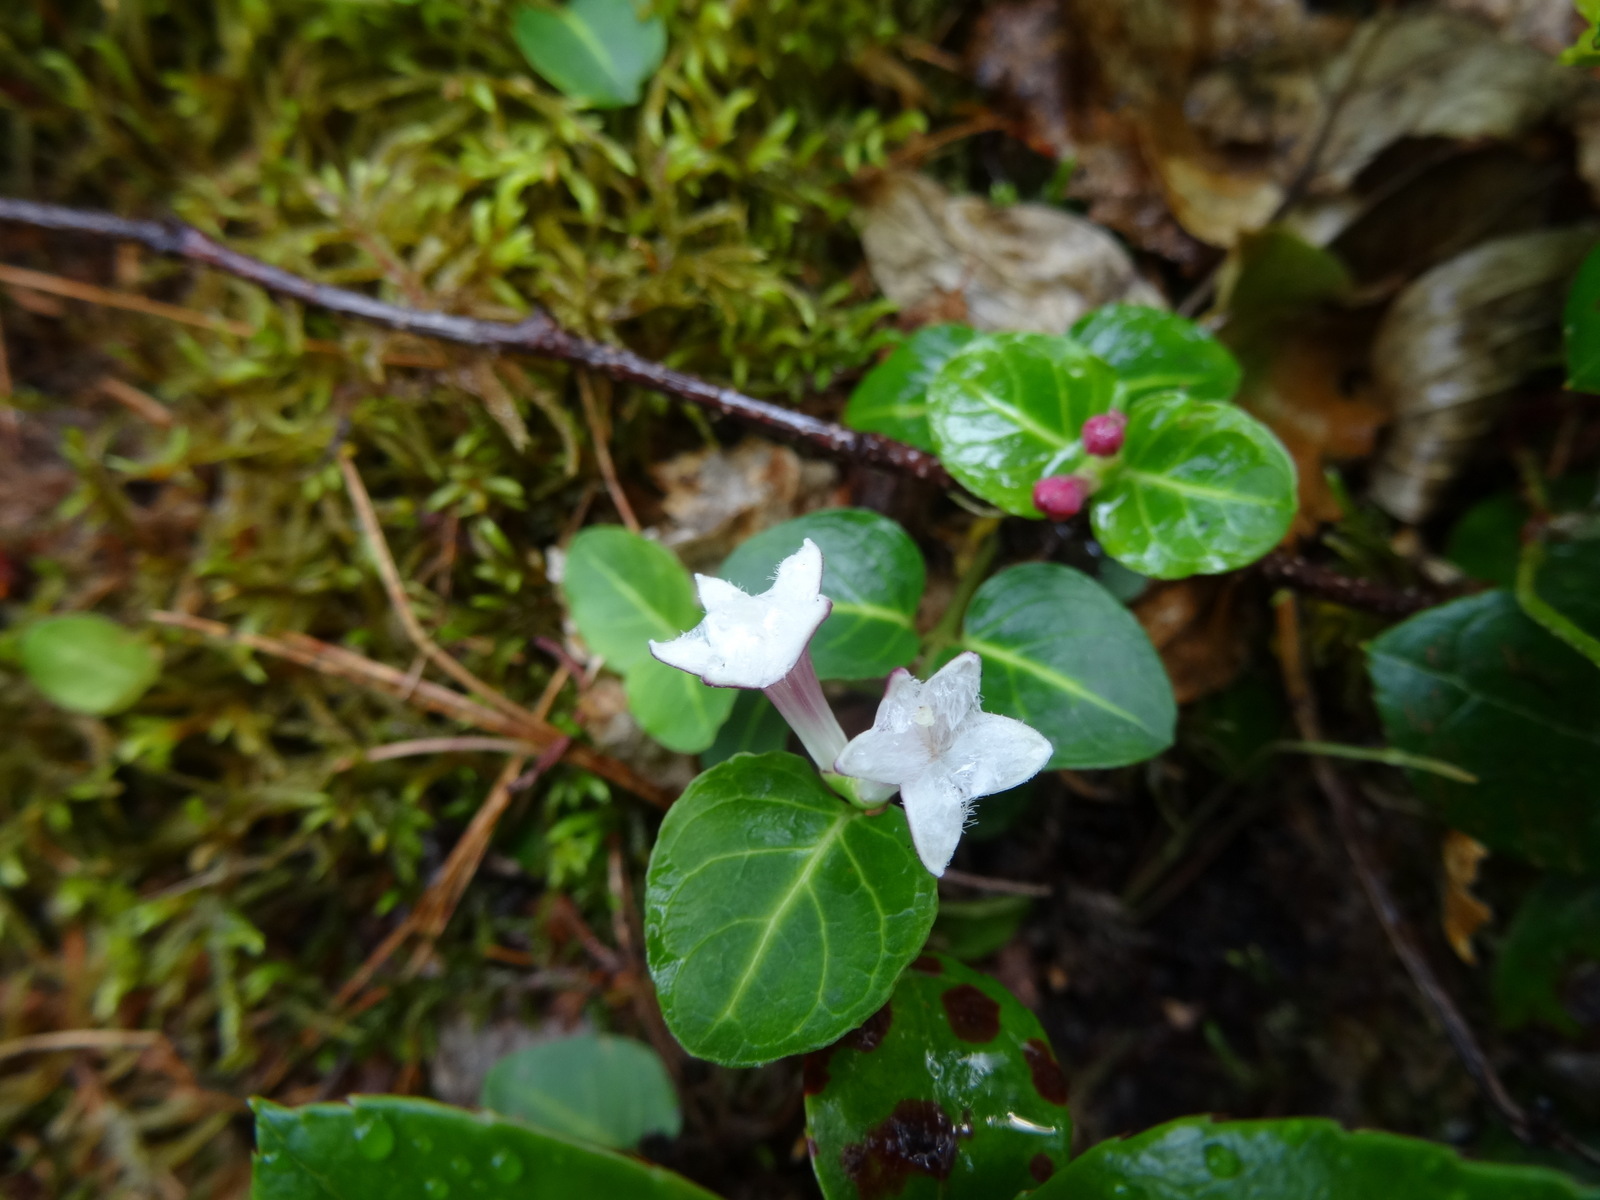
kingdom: Plantae
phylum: Tracheophyta
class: Magnoliopsida
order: Gentianales
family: Rubiaceae
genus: Mitchella
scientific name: Mitchella repens
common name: Partridge-berry
